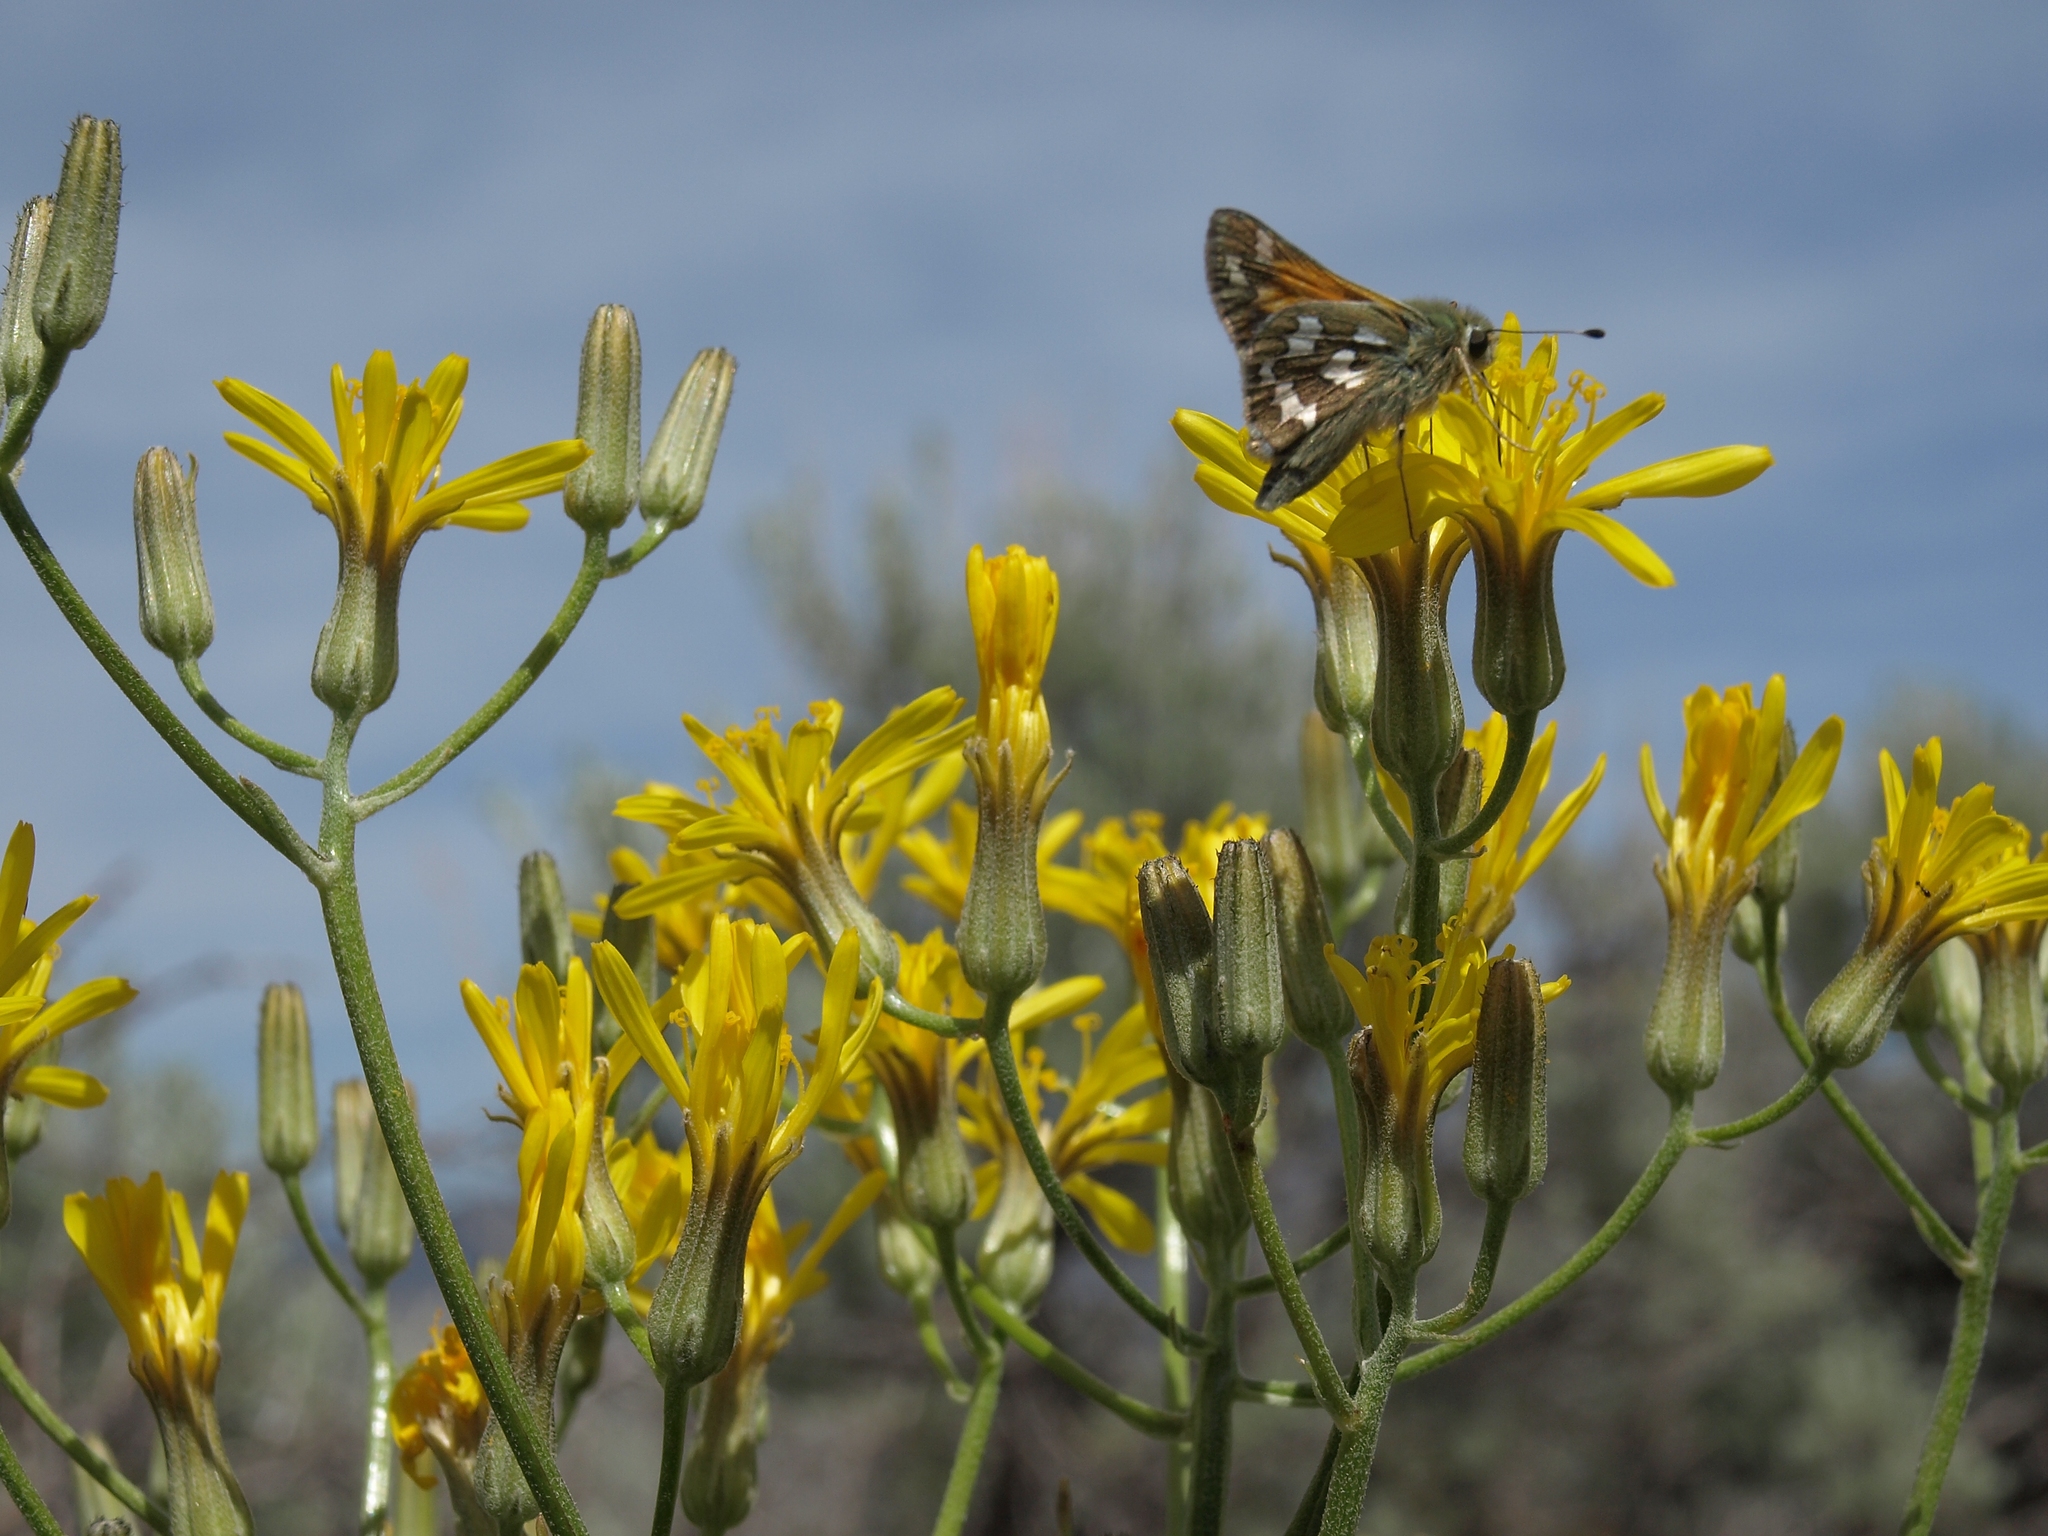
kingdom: Plantae
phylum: Tracheophyta
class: Magnoliopsida
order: Asterales
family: Asteraceae
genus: Crepis
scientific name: Crepis intermedia
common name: Limestone hawk's-beard
